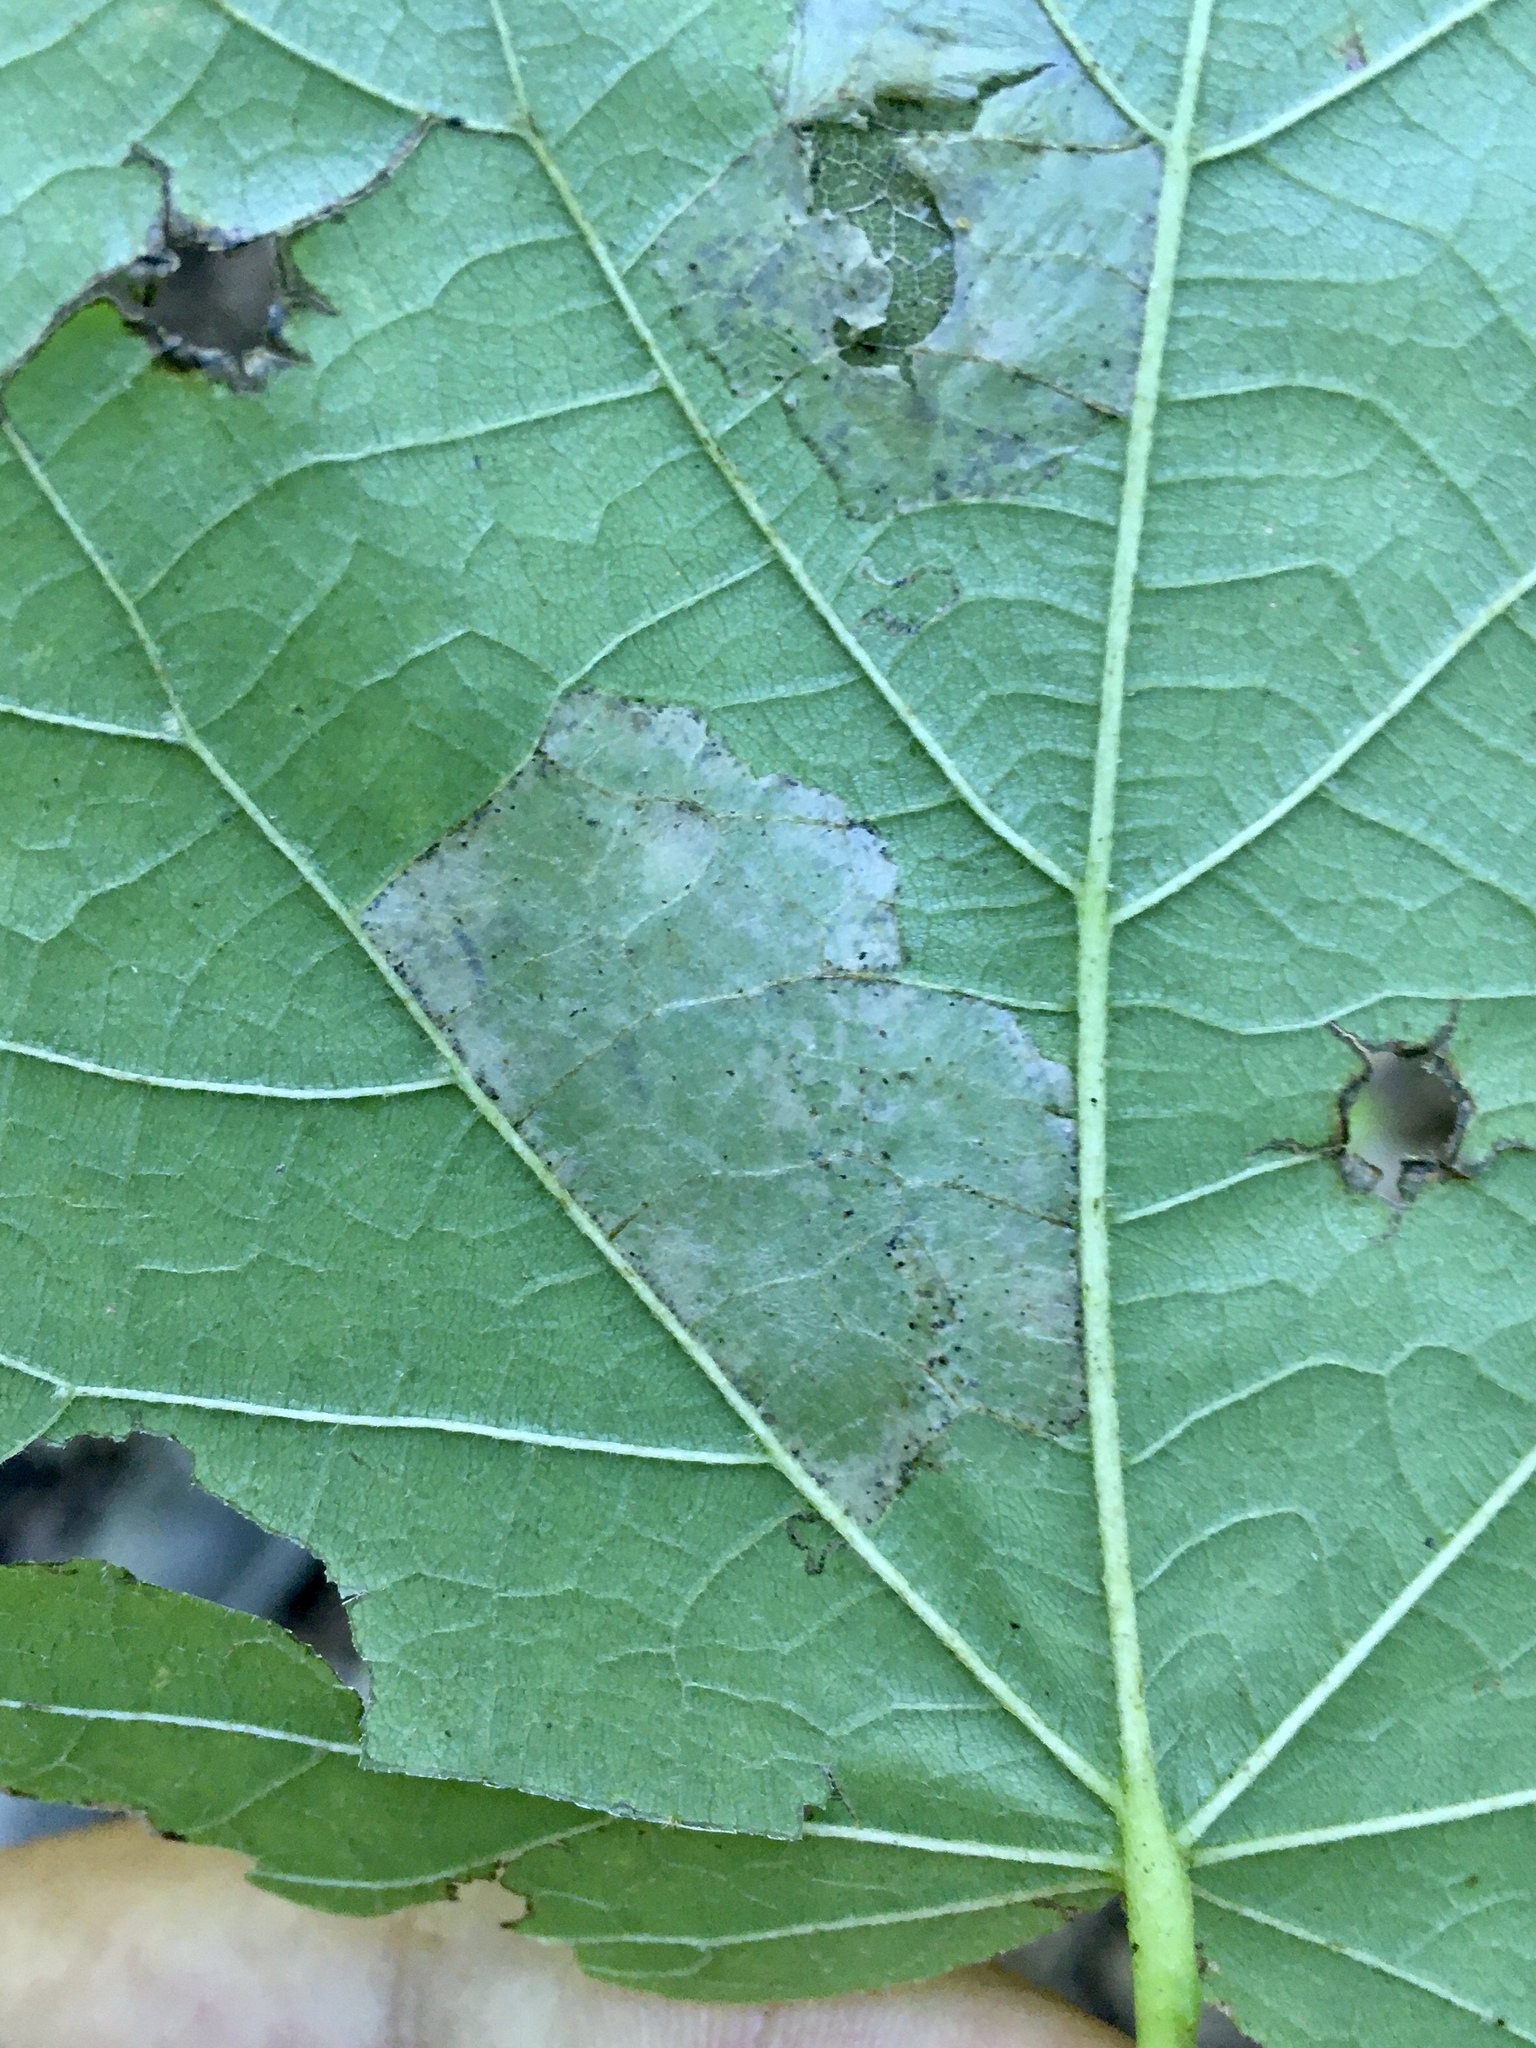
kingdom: Animalia
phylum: Arthropoda
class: Insecta
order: Lepidoptera
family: Gracillariidae
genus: Phyllonorycter
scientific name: Phyllonorycter lucetiella
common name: Basswood miner moth
